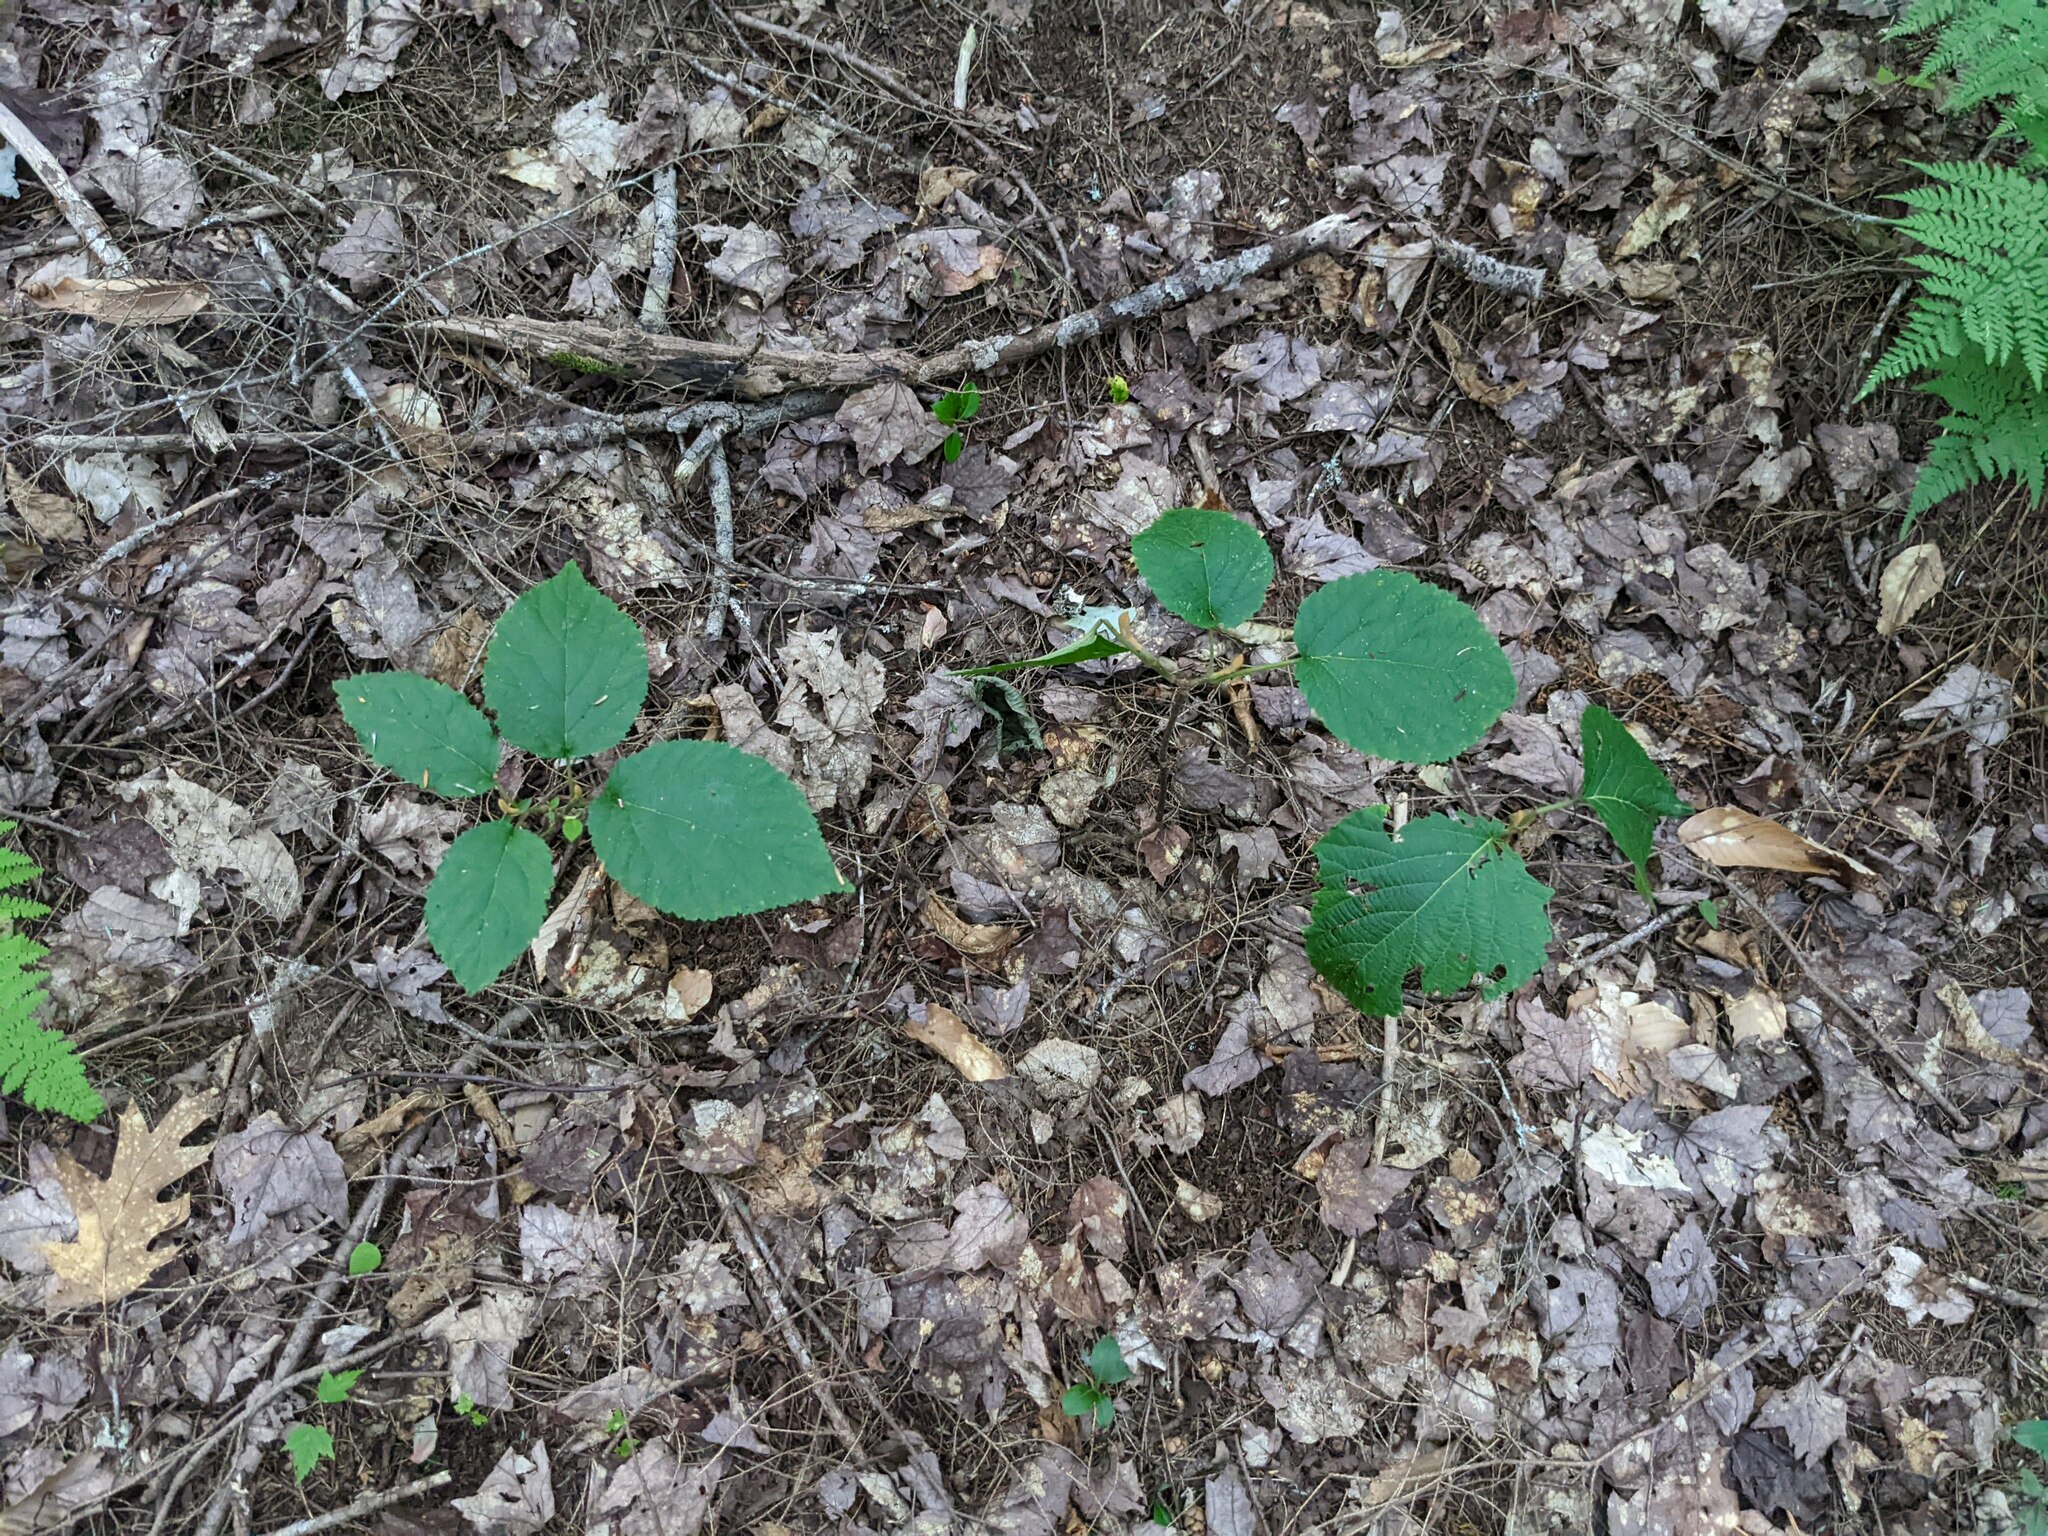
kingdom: Plantae
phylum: Tracheophyta
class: Magnoliopsida
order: Dipsacales
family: Viburnaceae
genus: Viburnum
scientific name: Viburnum lantanoides
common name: Hobblebush
